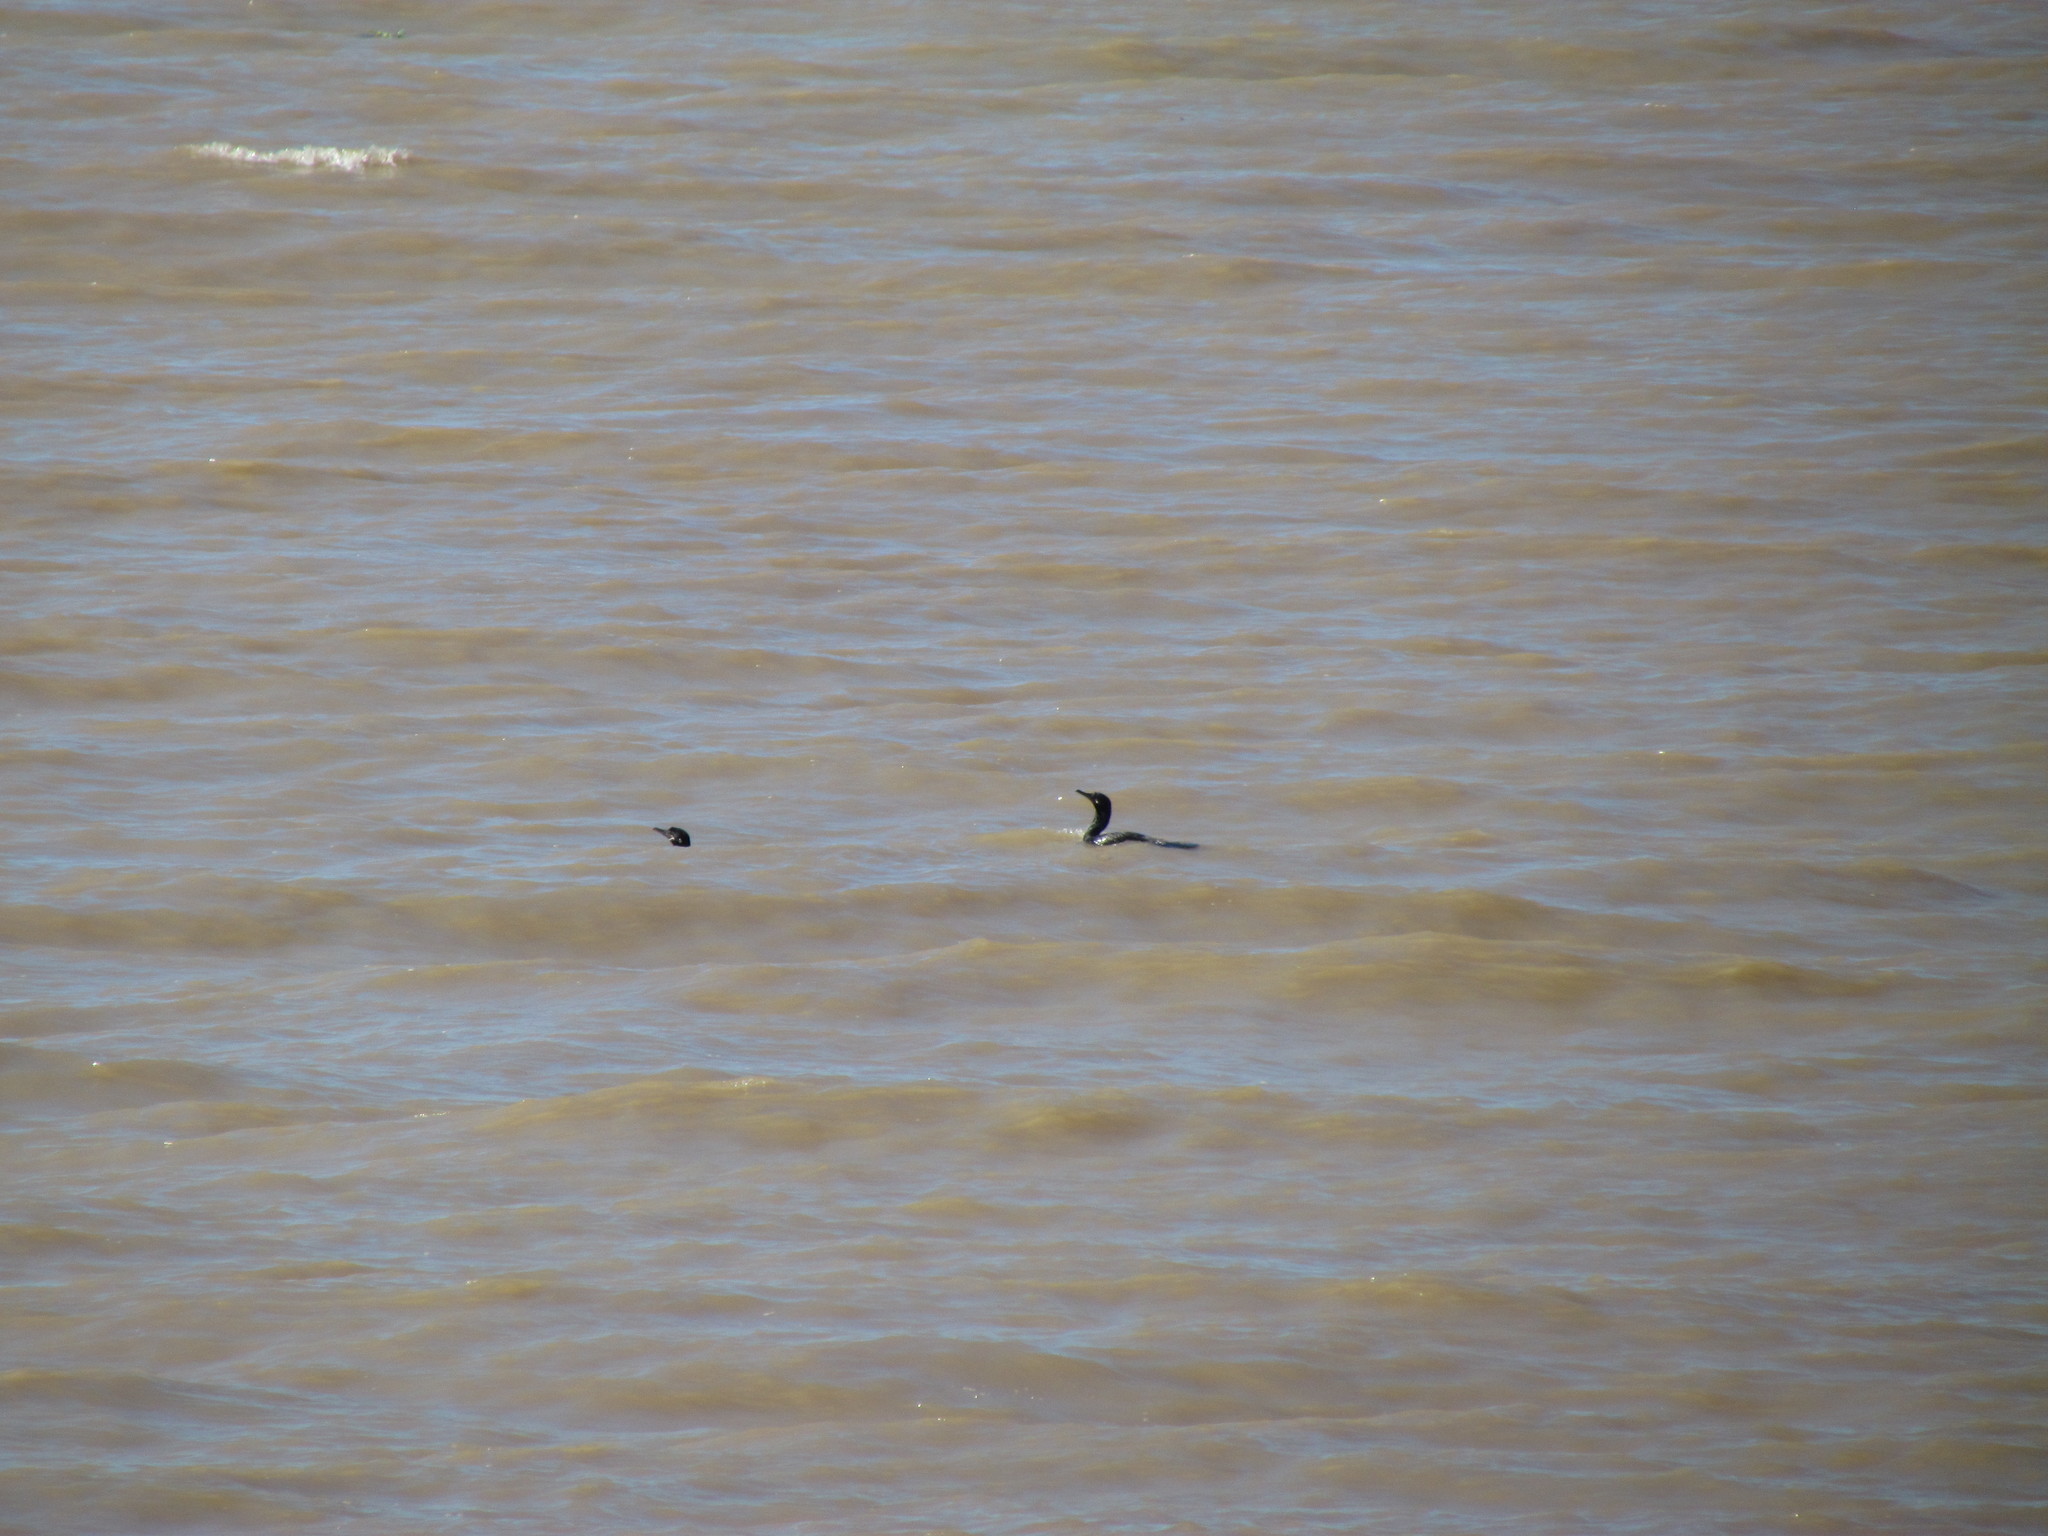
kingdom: Animalia
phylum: Chordata
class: Aves
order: Suliformes
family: Phalacrocoracidae
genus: Phalacrocorax
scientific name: Phalacrocorax brasilianus
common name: Neotropic cormorant
